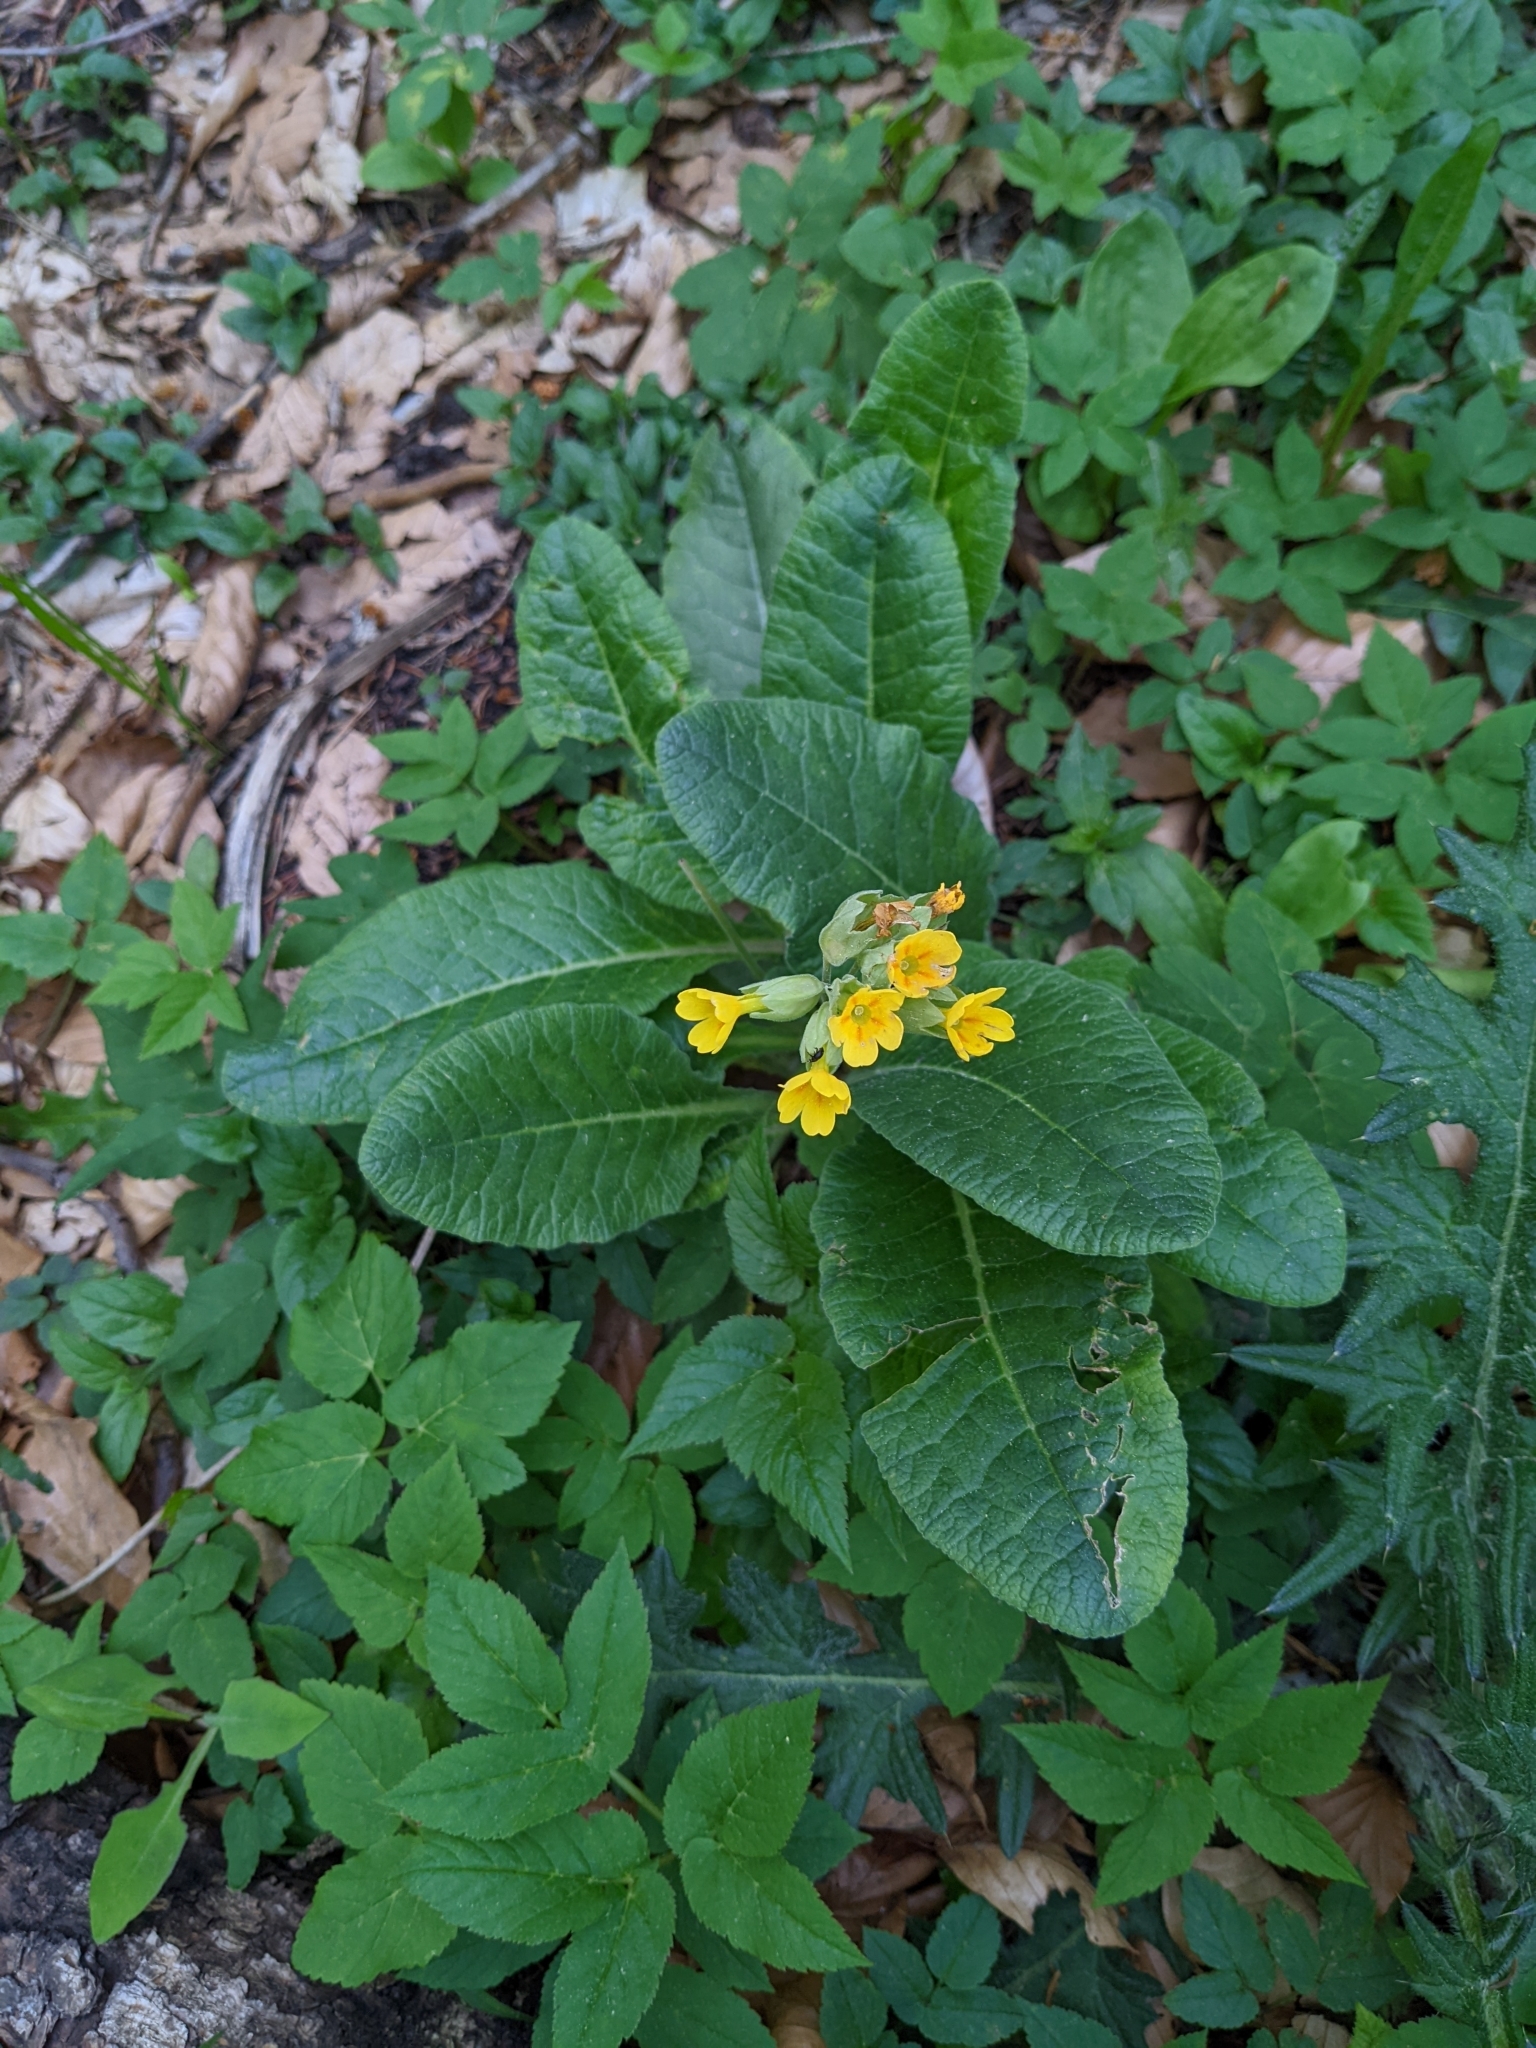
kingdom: Plantae
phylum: Tracheophyta
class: Magnoliopsida
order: Ericales
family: Primulaceae
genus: Primula
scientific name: Primula veris
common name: Cowslip
